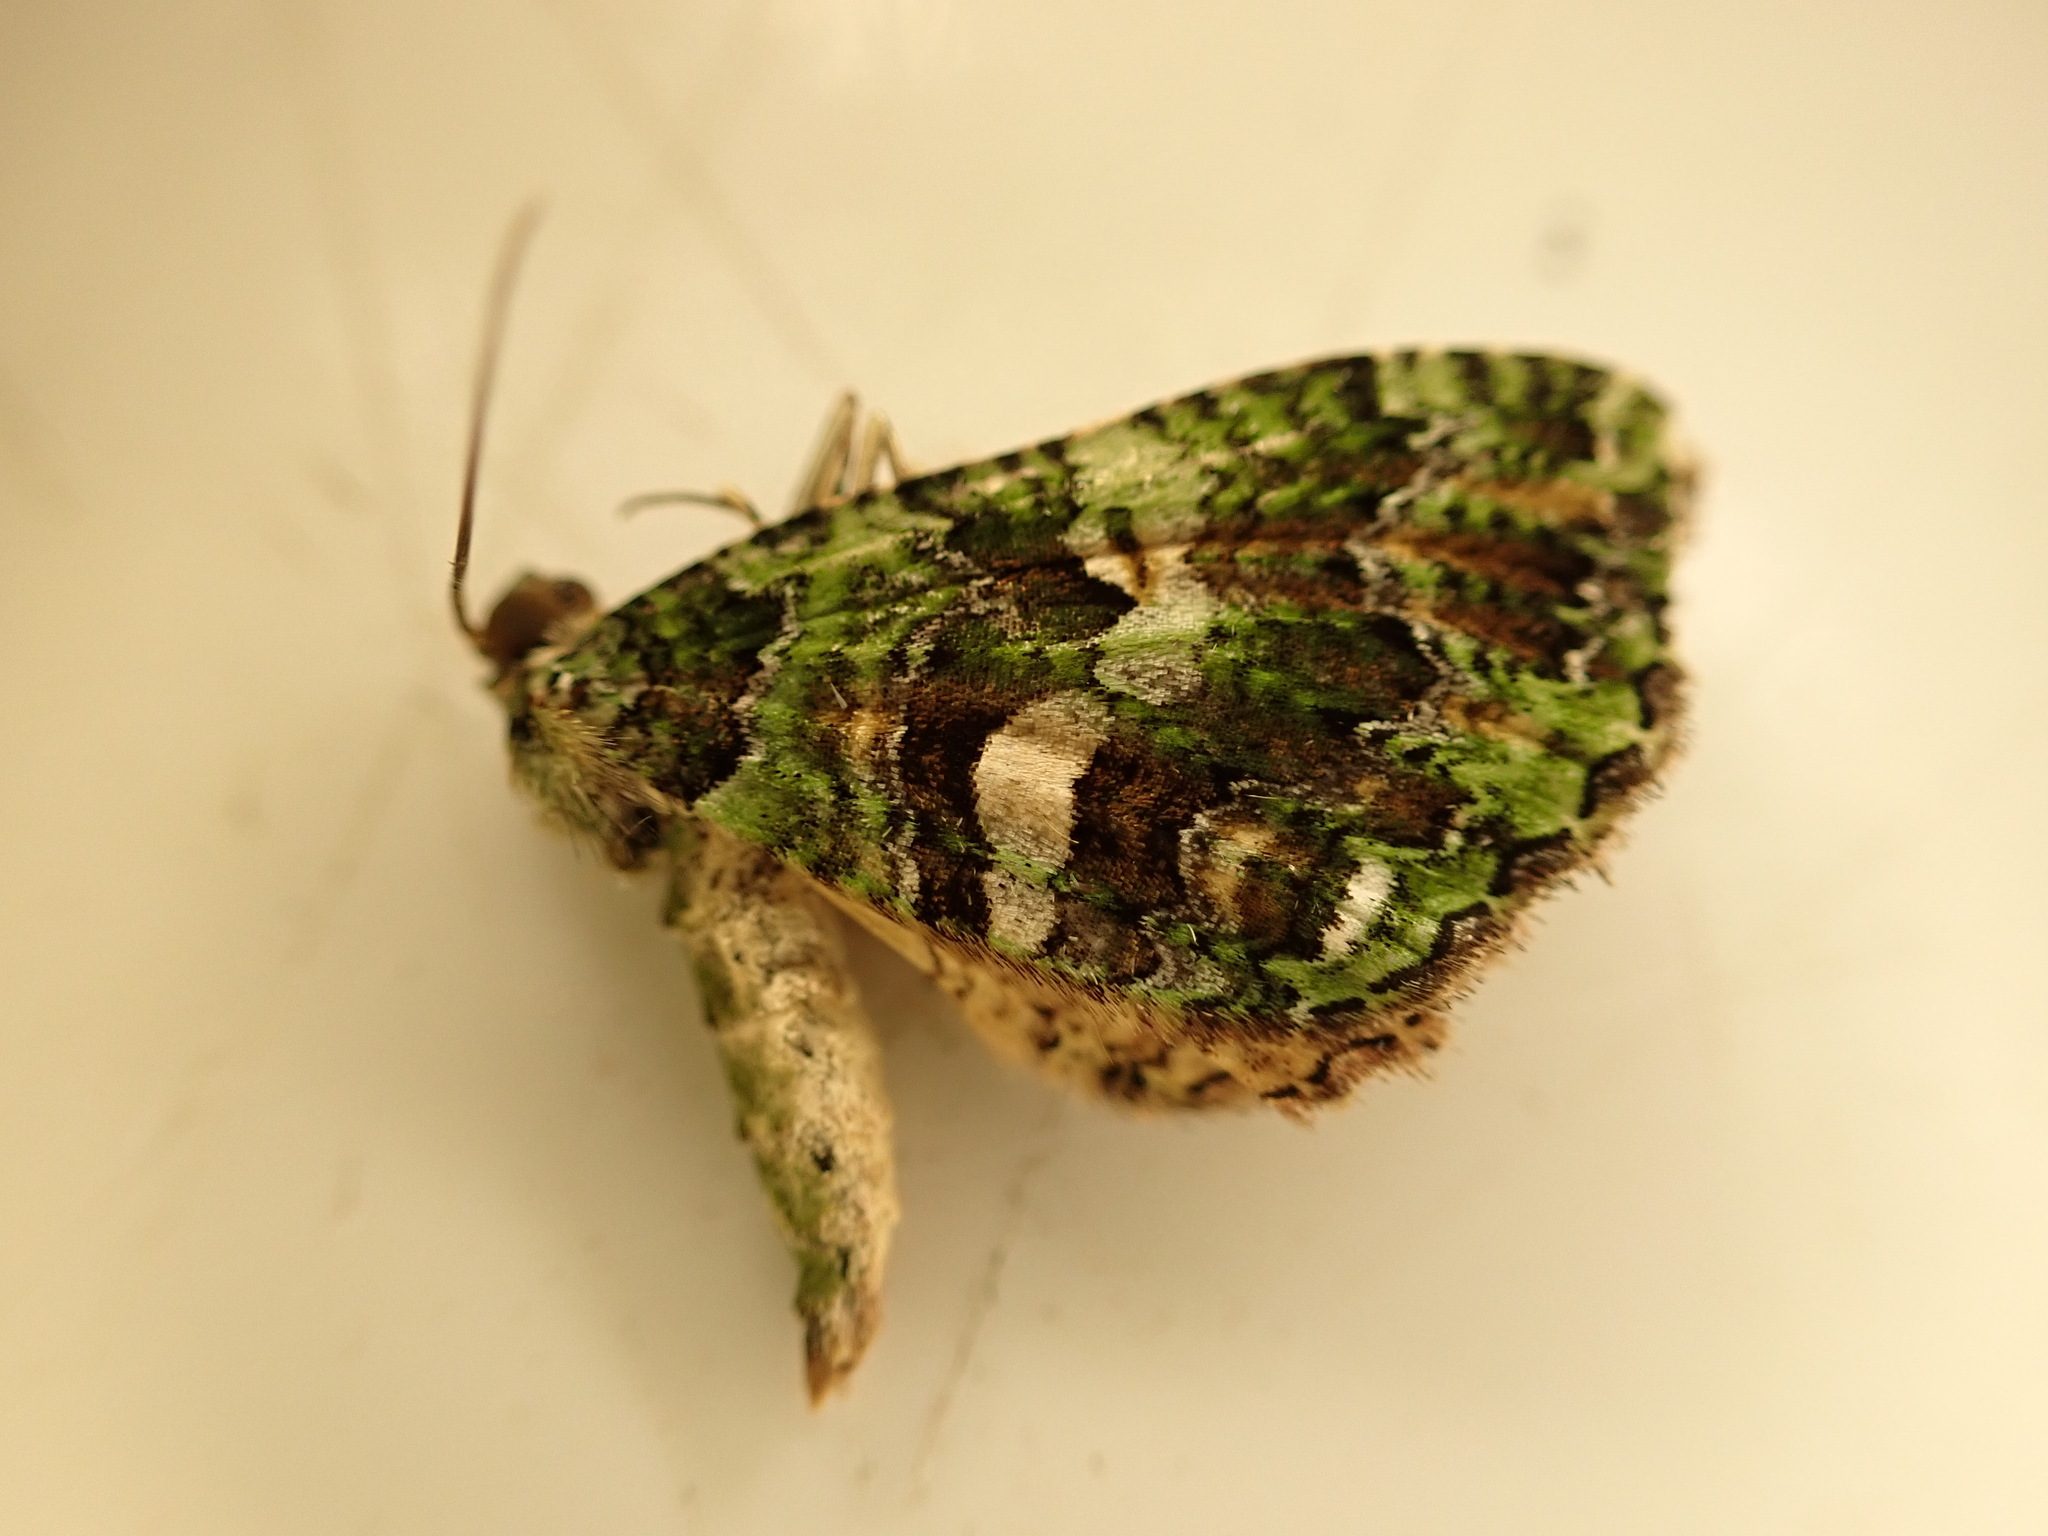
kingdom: Animalia
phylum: Arthropoda
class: Insecta
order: Lepidoptera
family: Geometridae
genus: Austrocidaria
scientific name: Austrocidaria similata
